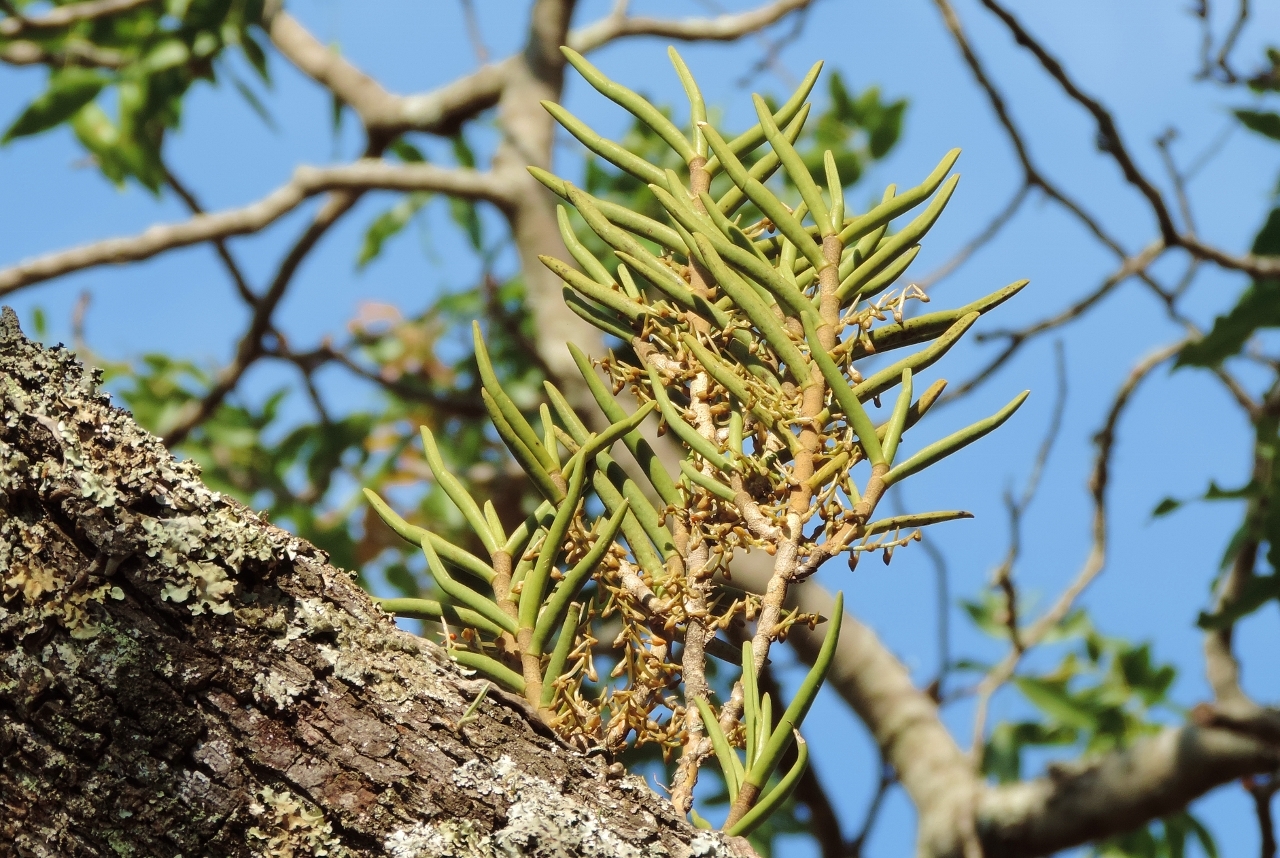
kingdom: Plantae
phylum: Tracheophyta
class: Liliopsida
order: Asparagales
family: Orchidaceae
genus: Tridactyle
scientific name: Tridactyle tridentata
